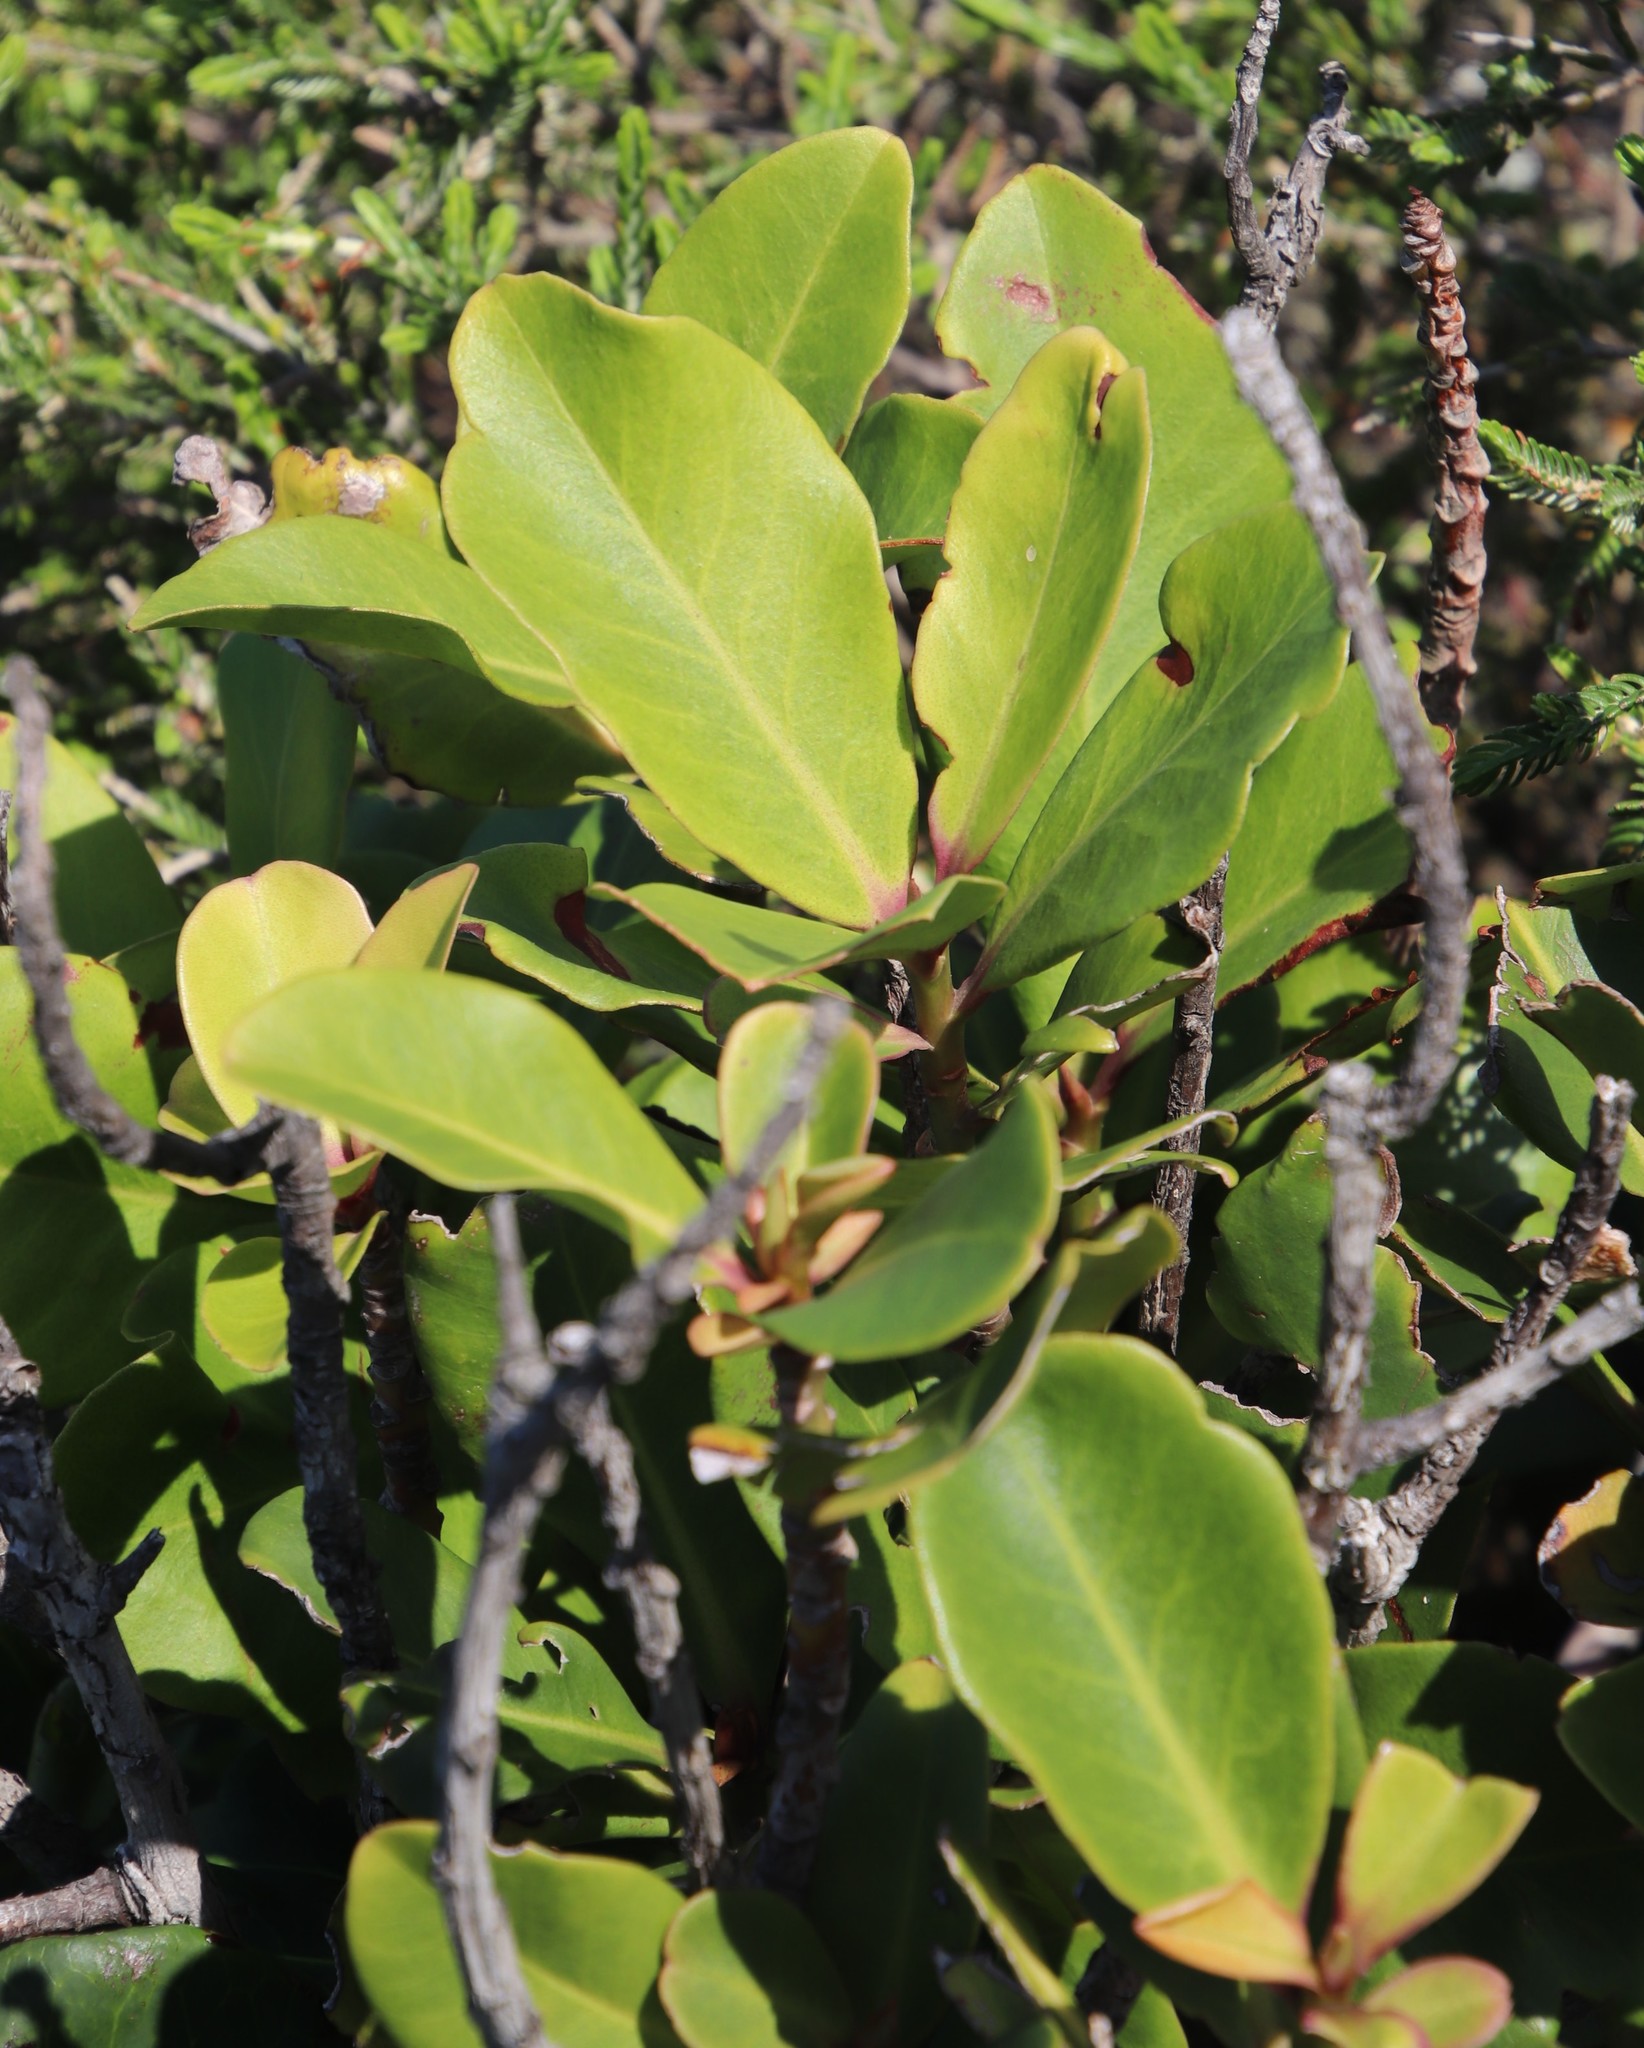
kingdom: Plantae
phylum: Tracheophyta
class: Magnoliopsida
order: Ericales
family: Primulaceae
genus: Myrsine
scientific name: Myrsine melanophloeos
